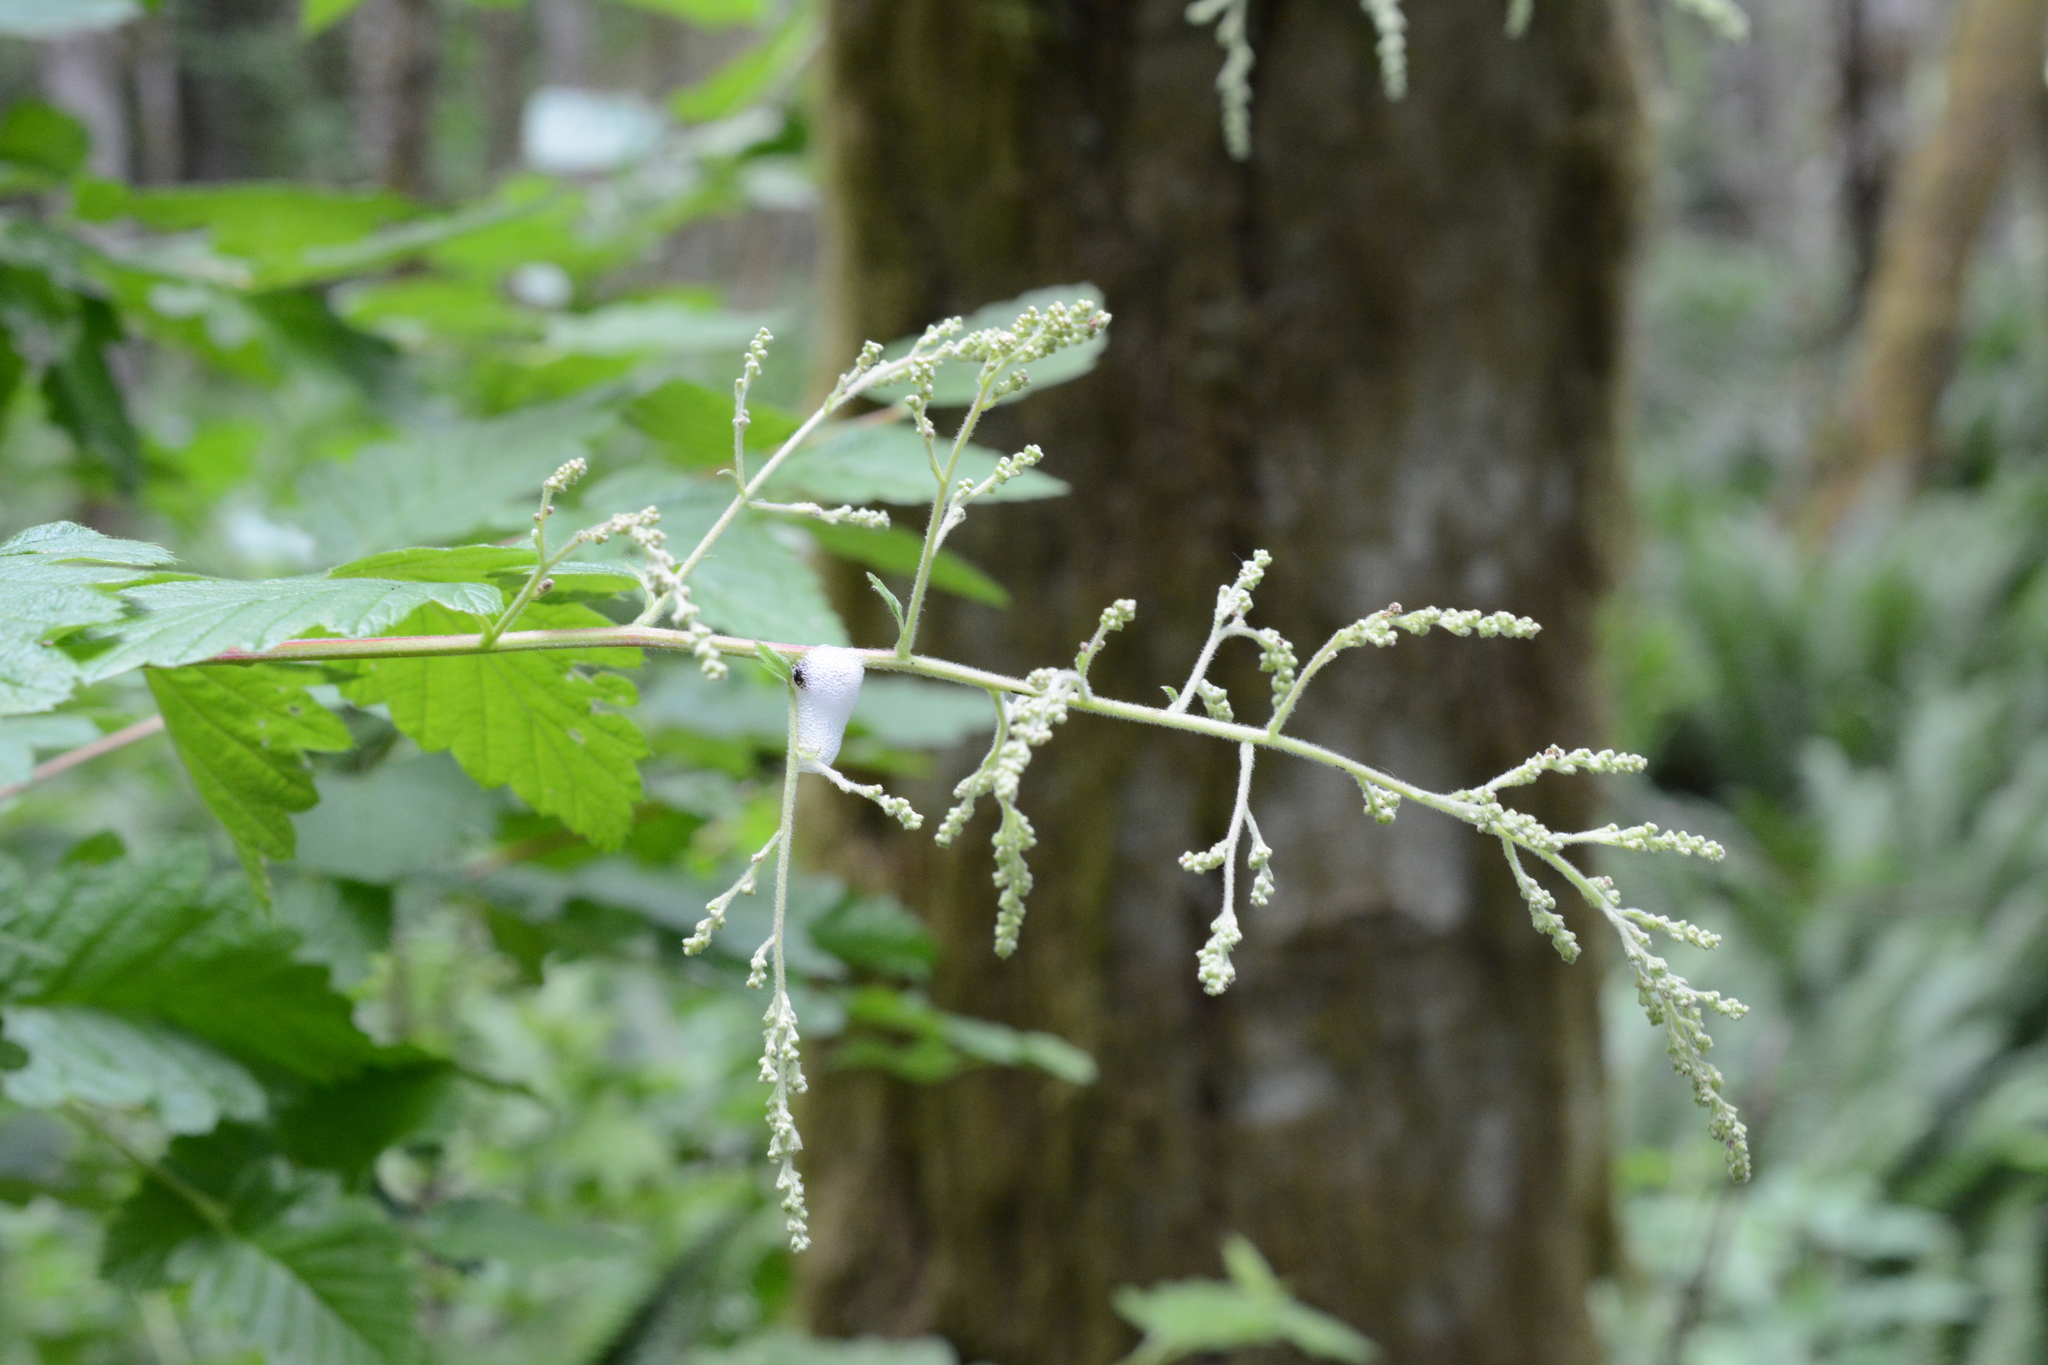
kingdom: Plantae
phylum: Tracheophyta
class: Magnoliopsida
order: Rosales
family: Rosaceae
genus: Holodiscus
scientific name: Holodiscus discolor
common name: Oceanspray
